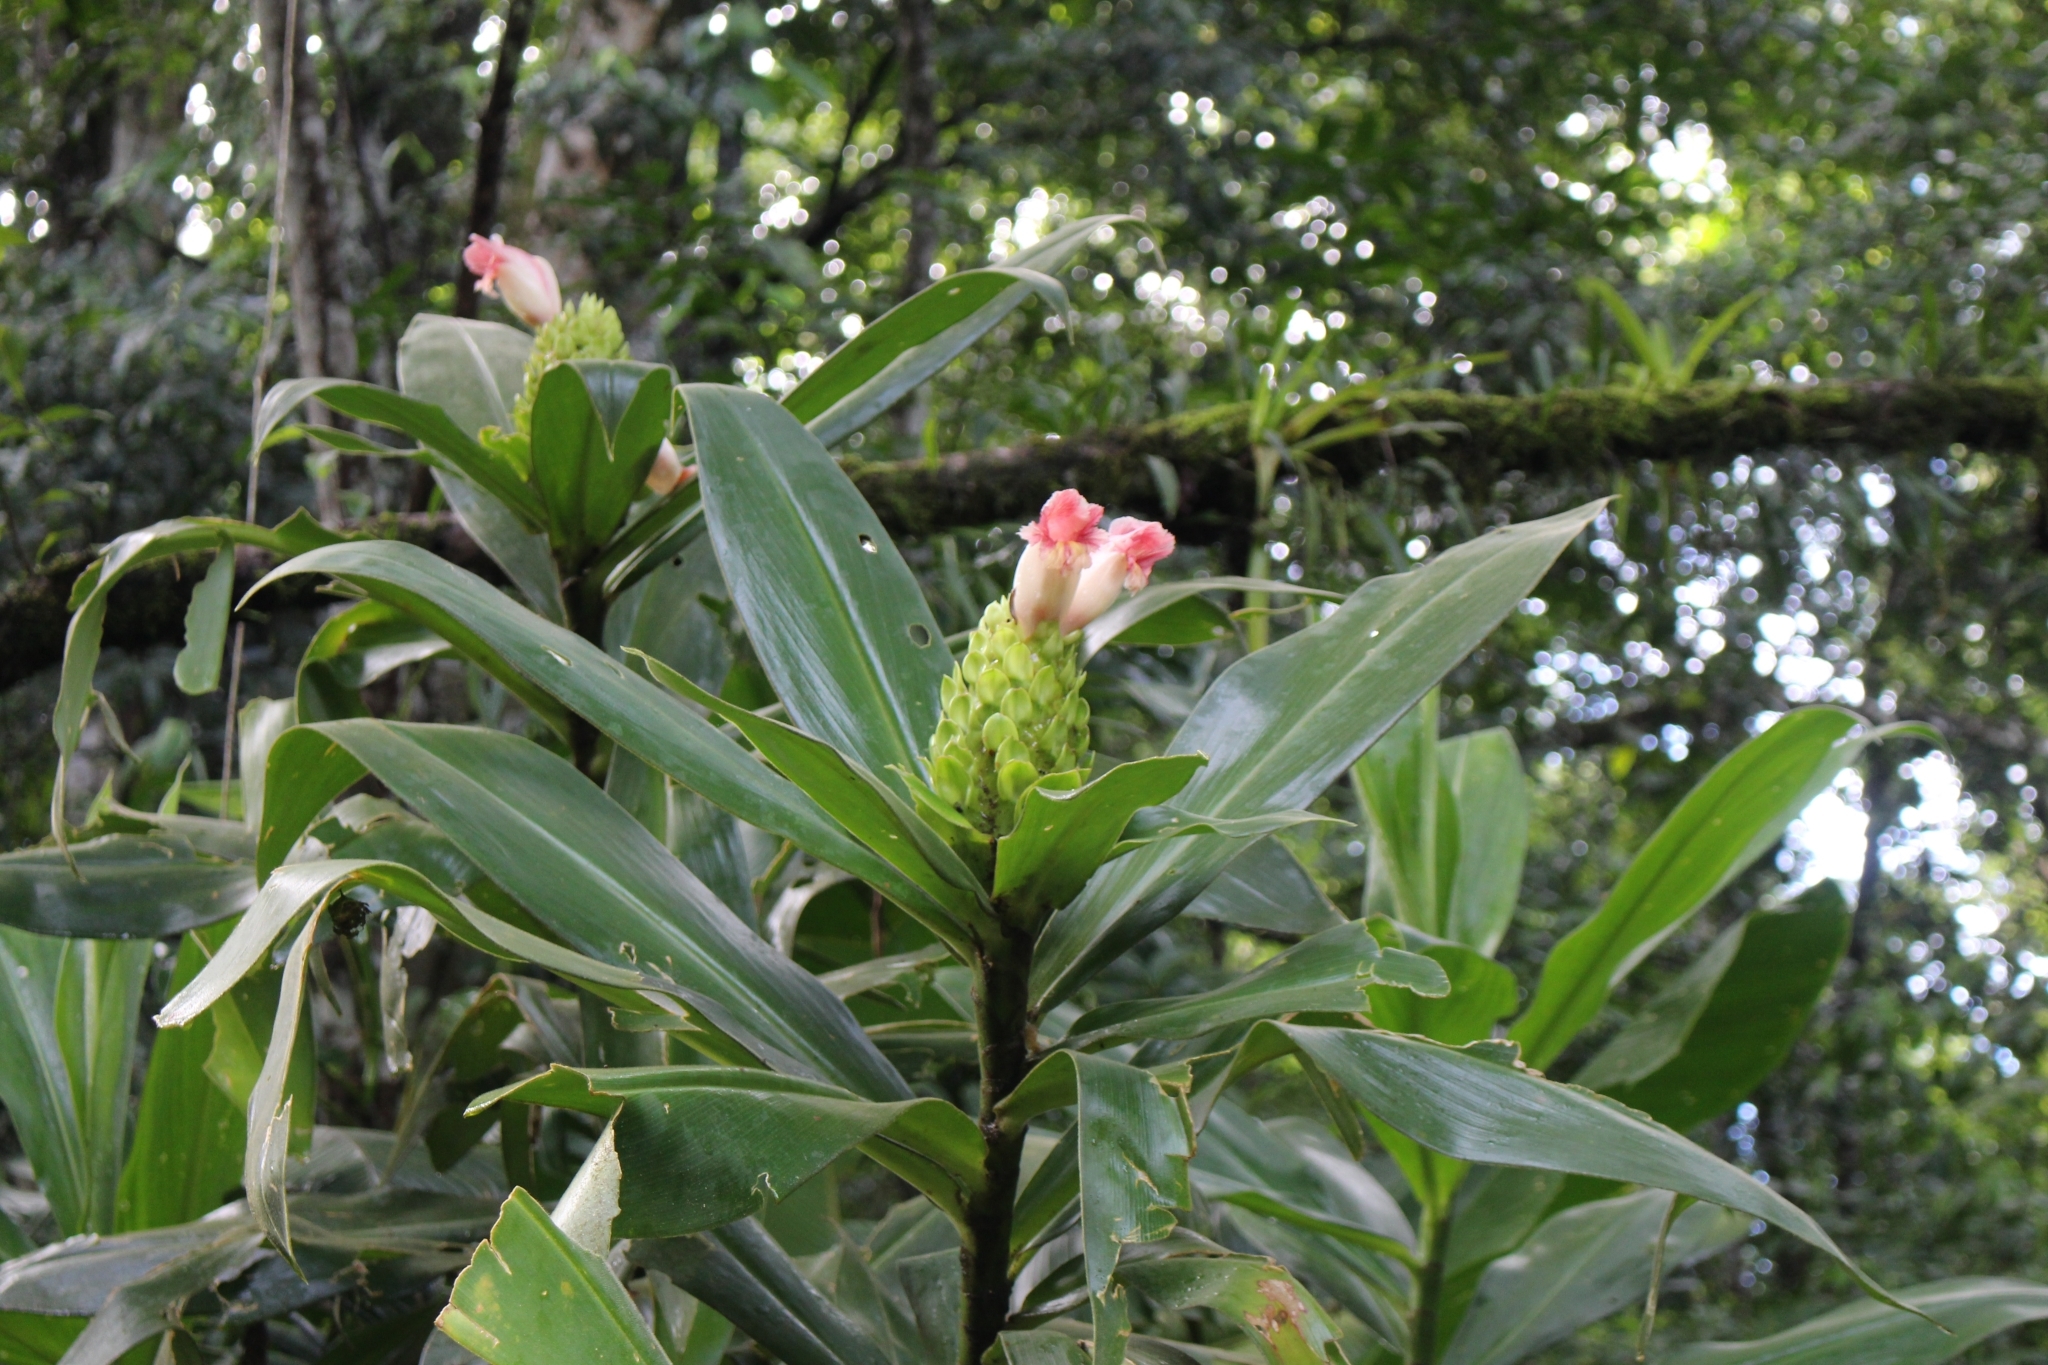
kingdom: Plantae
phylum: Tracheophyta
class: Liliopsida
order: Zingiberales
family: Costaceae
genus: Costus
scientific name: Costus guanaiensis
